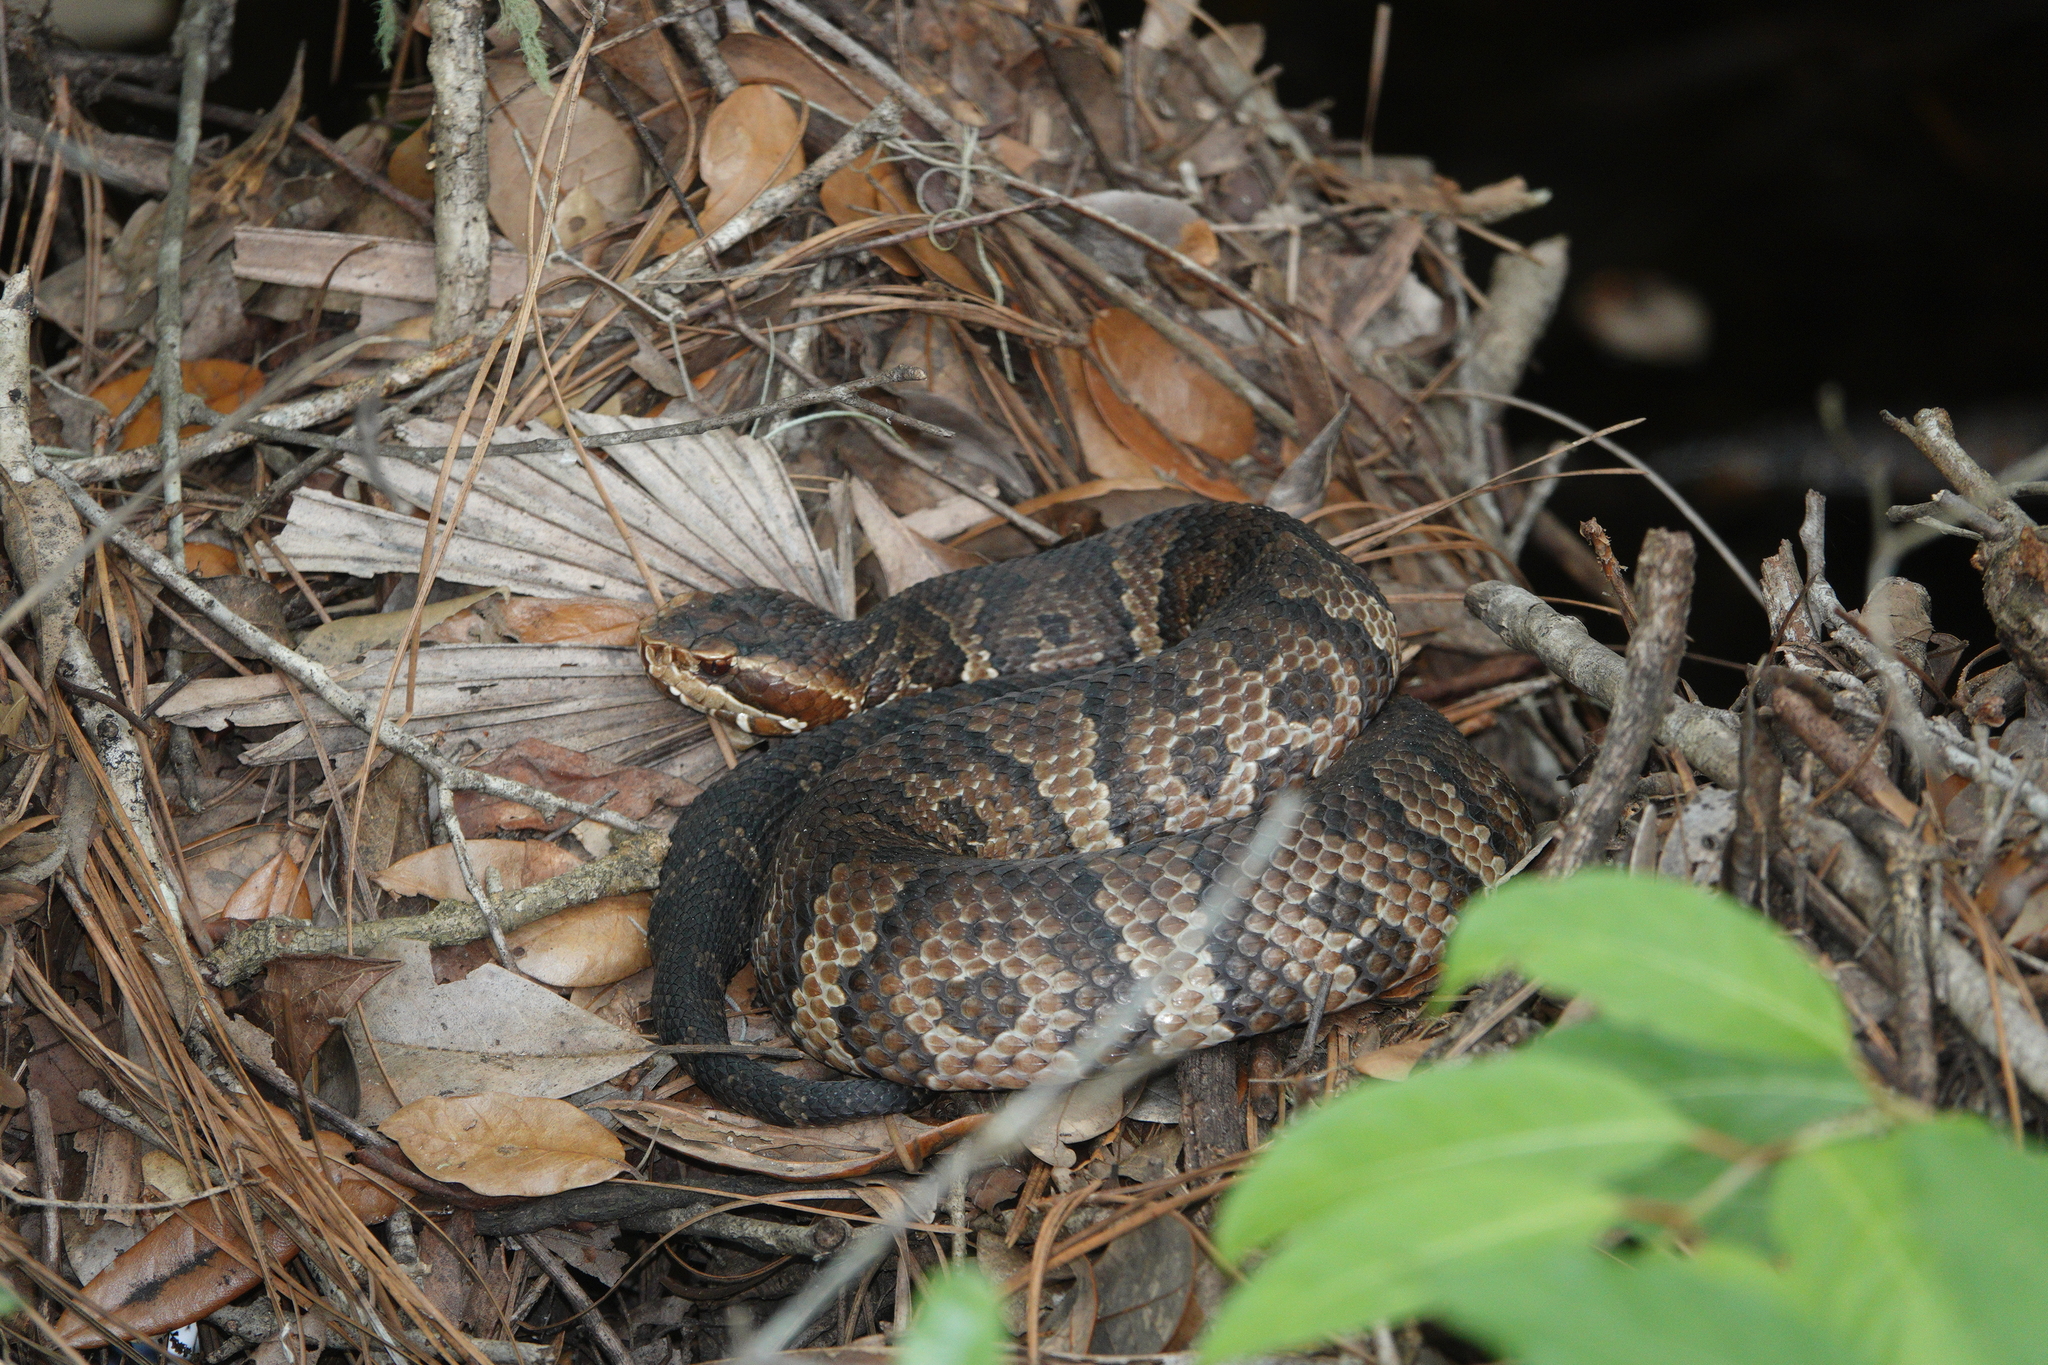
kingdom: Animalia
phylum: Chordata
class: Squamata
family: Viperidae
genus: Agkistrodon
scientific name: Agkistrodon conanti
